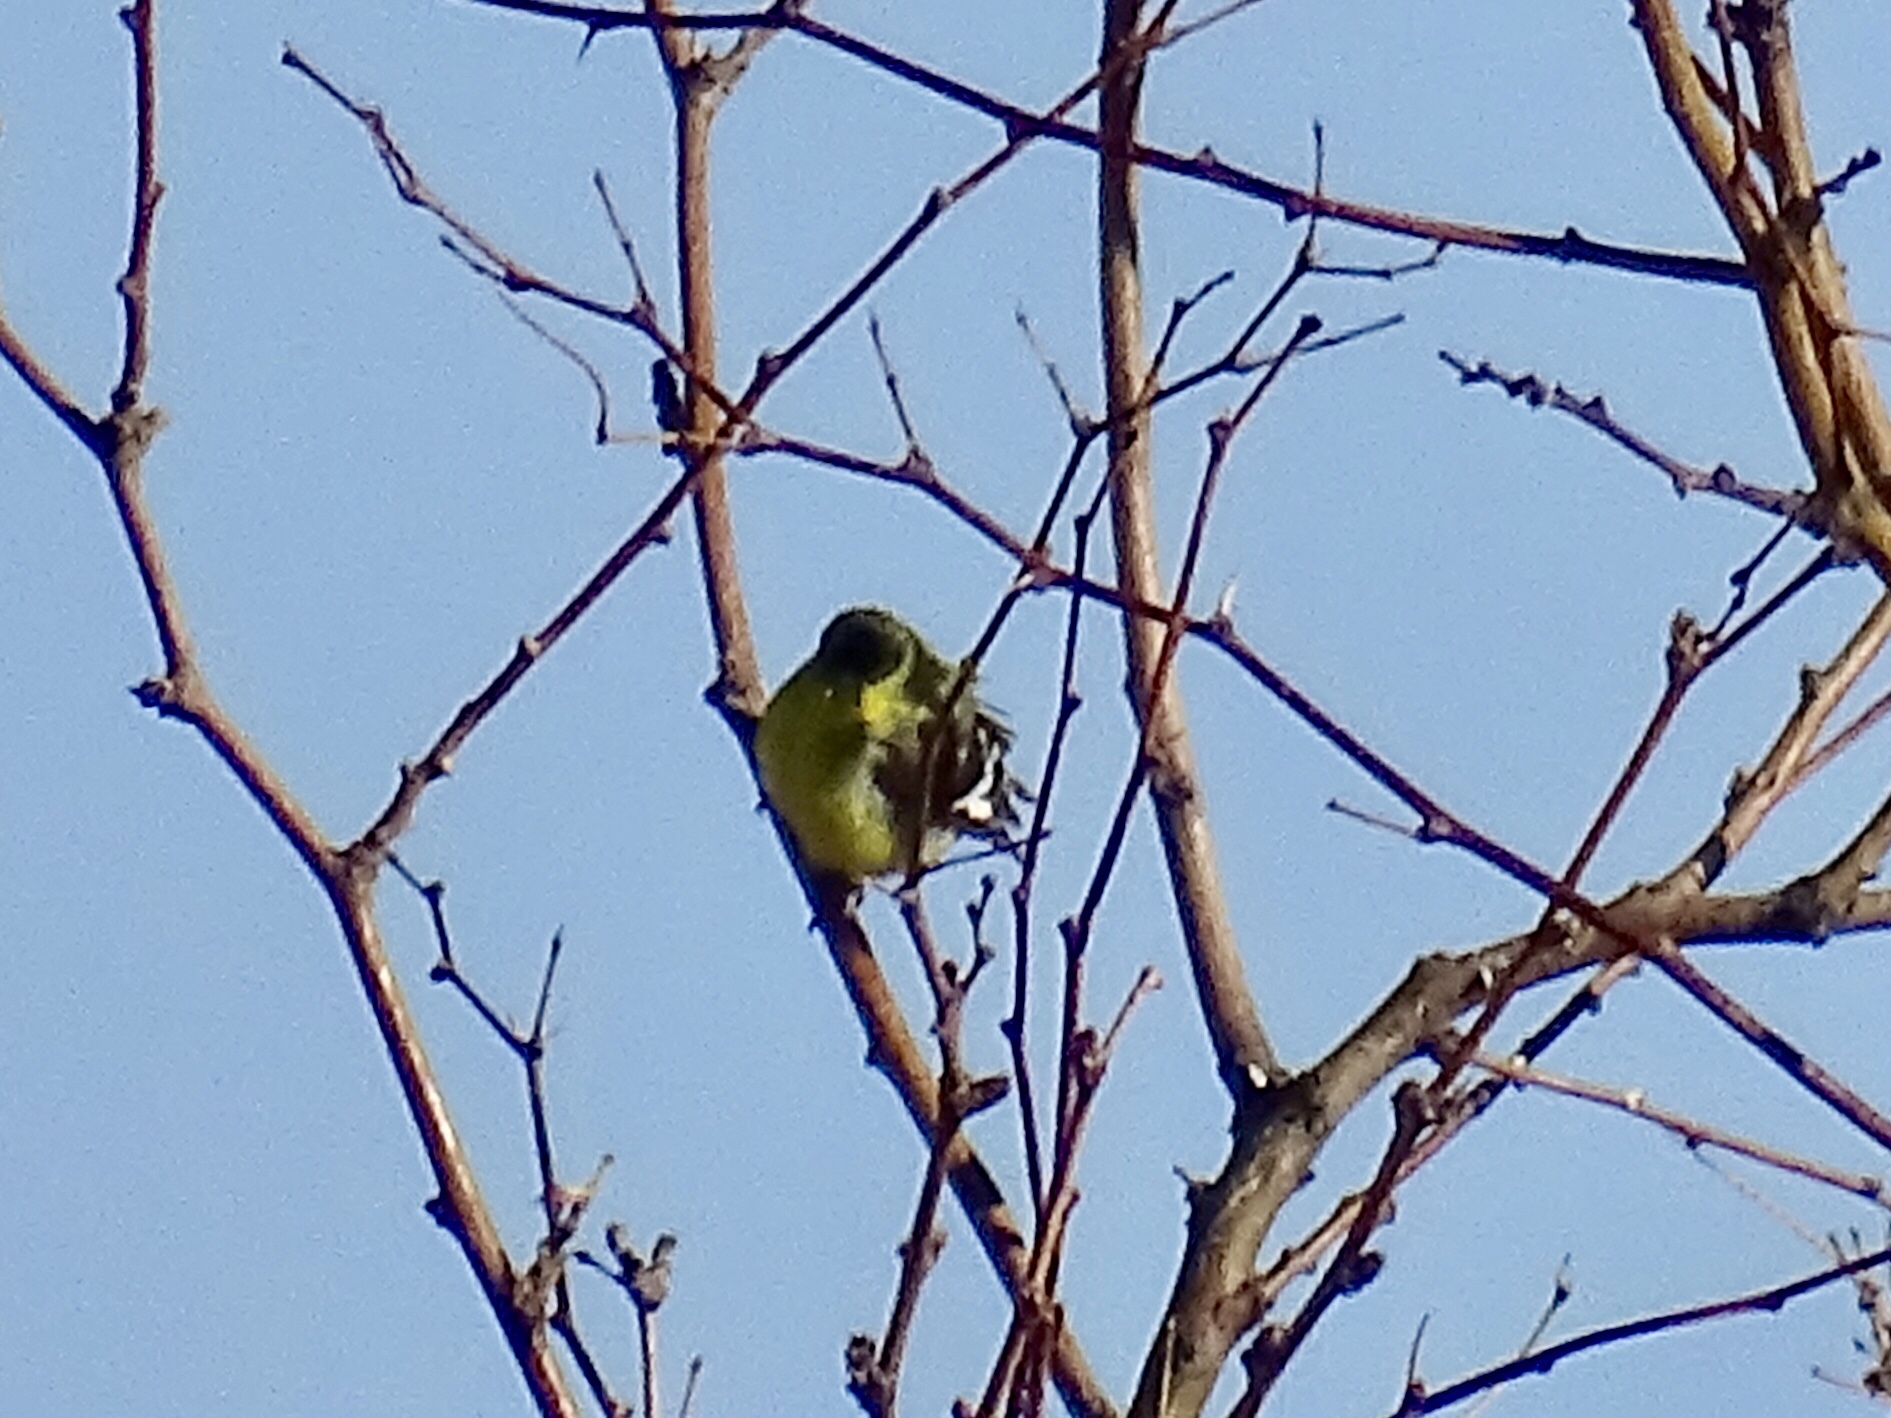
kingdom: Animalia
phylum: Chordata
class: Aves
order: Passeriformes
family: Fringillidae
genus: Spinus
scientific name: Spinus psaltria
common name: Lesser goldfinch
